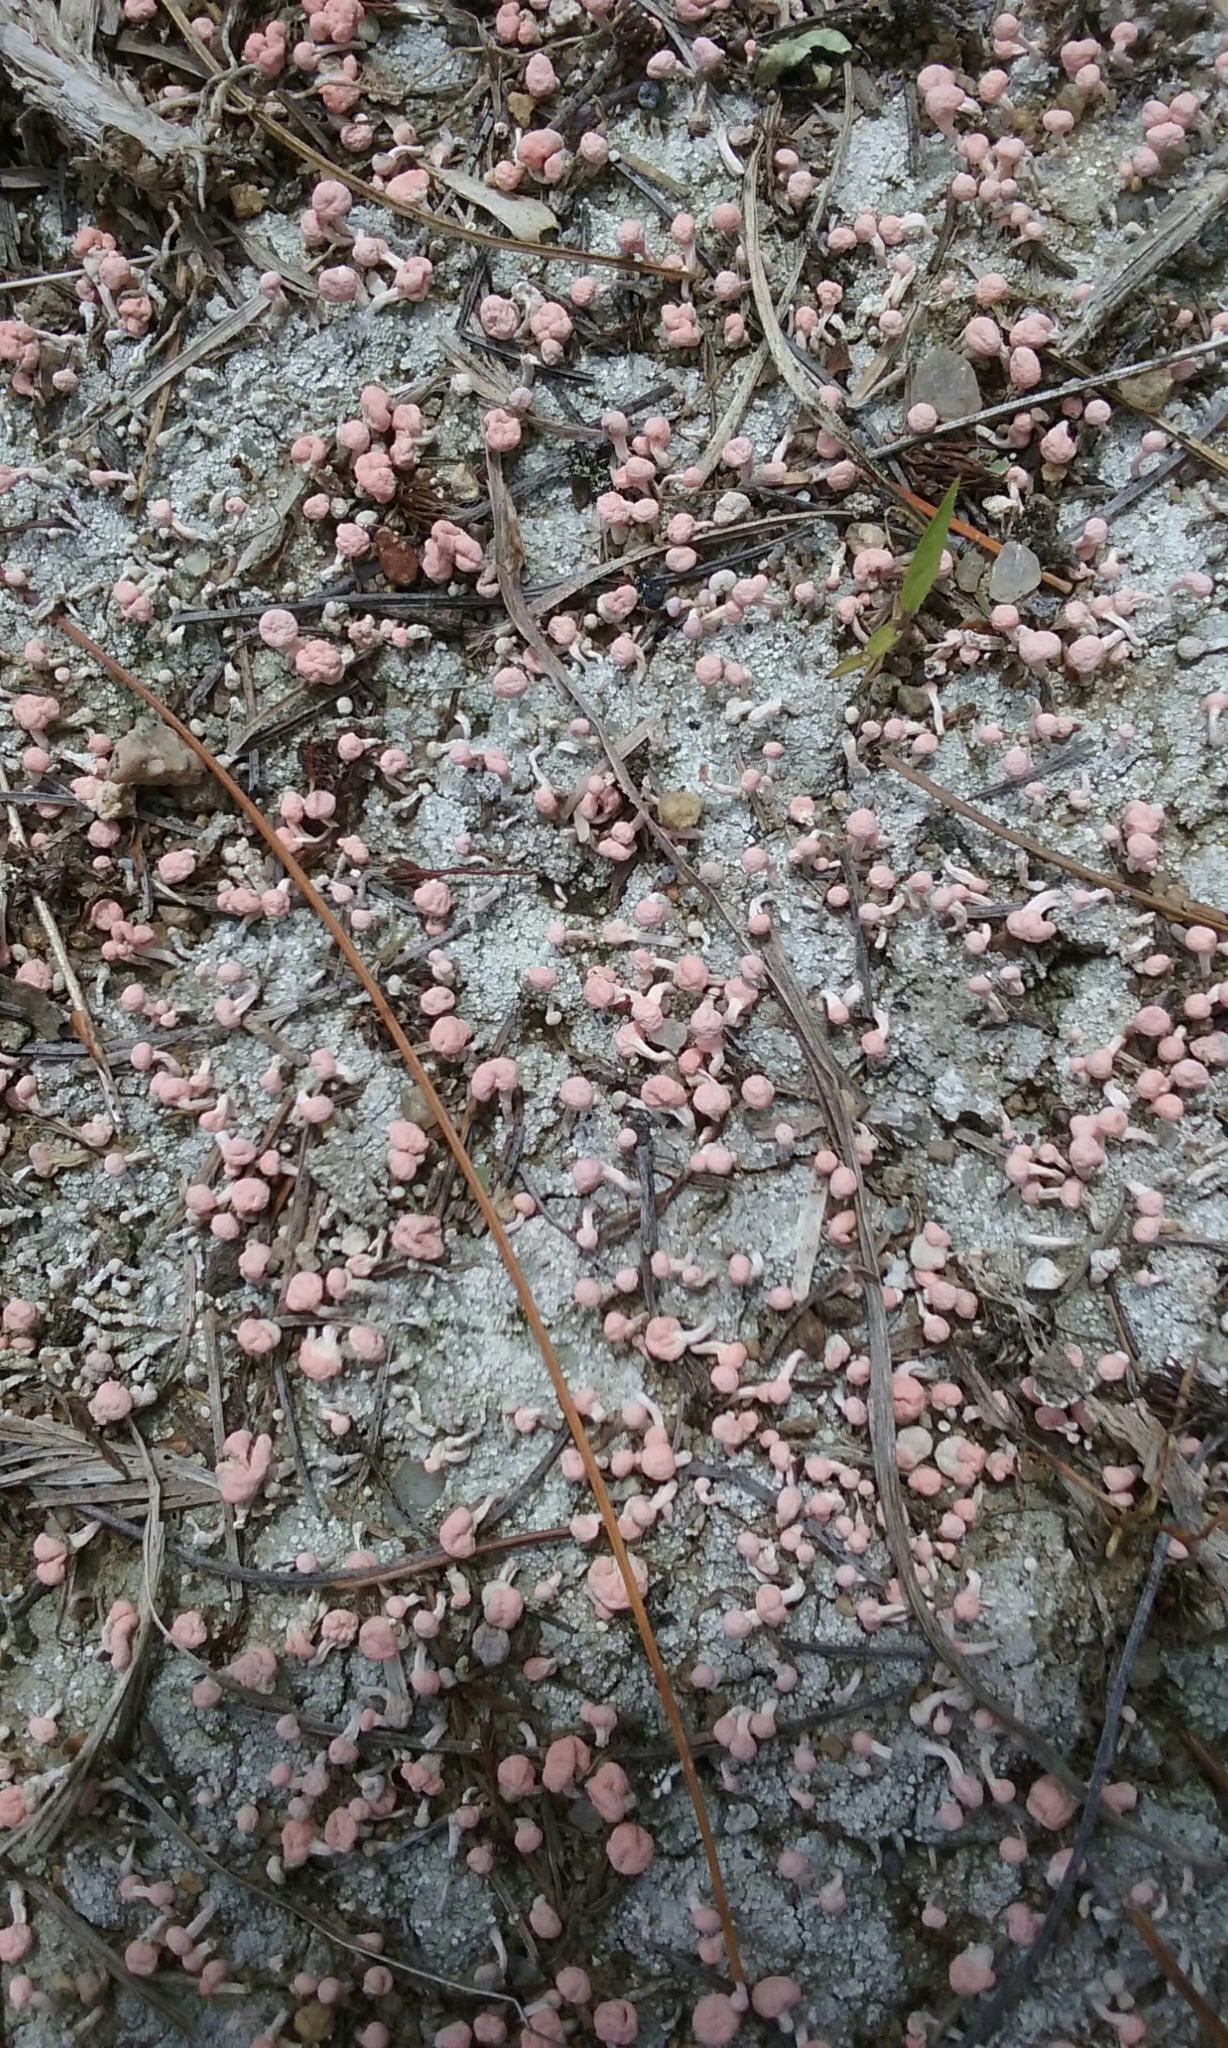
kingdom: Fungi
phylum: Ascomycota
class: Lecanoromycetes
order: Pertusariales
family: Icmadophilaceae
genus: Dibaeis
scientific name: Dibaeis baeomyces
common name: Pink earth lichen
